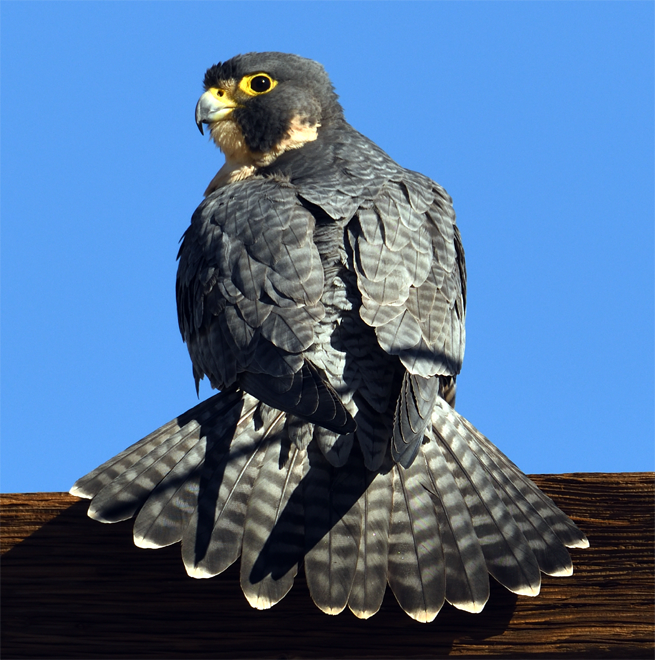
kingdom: Animalia
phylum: Chordata
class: Aves
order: Falconiformes
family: Falconidae
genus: Falco
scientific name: Falco peregrinus
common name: Peregrine falcon
